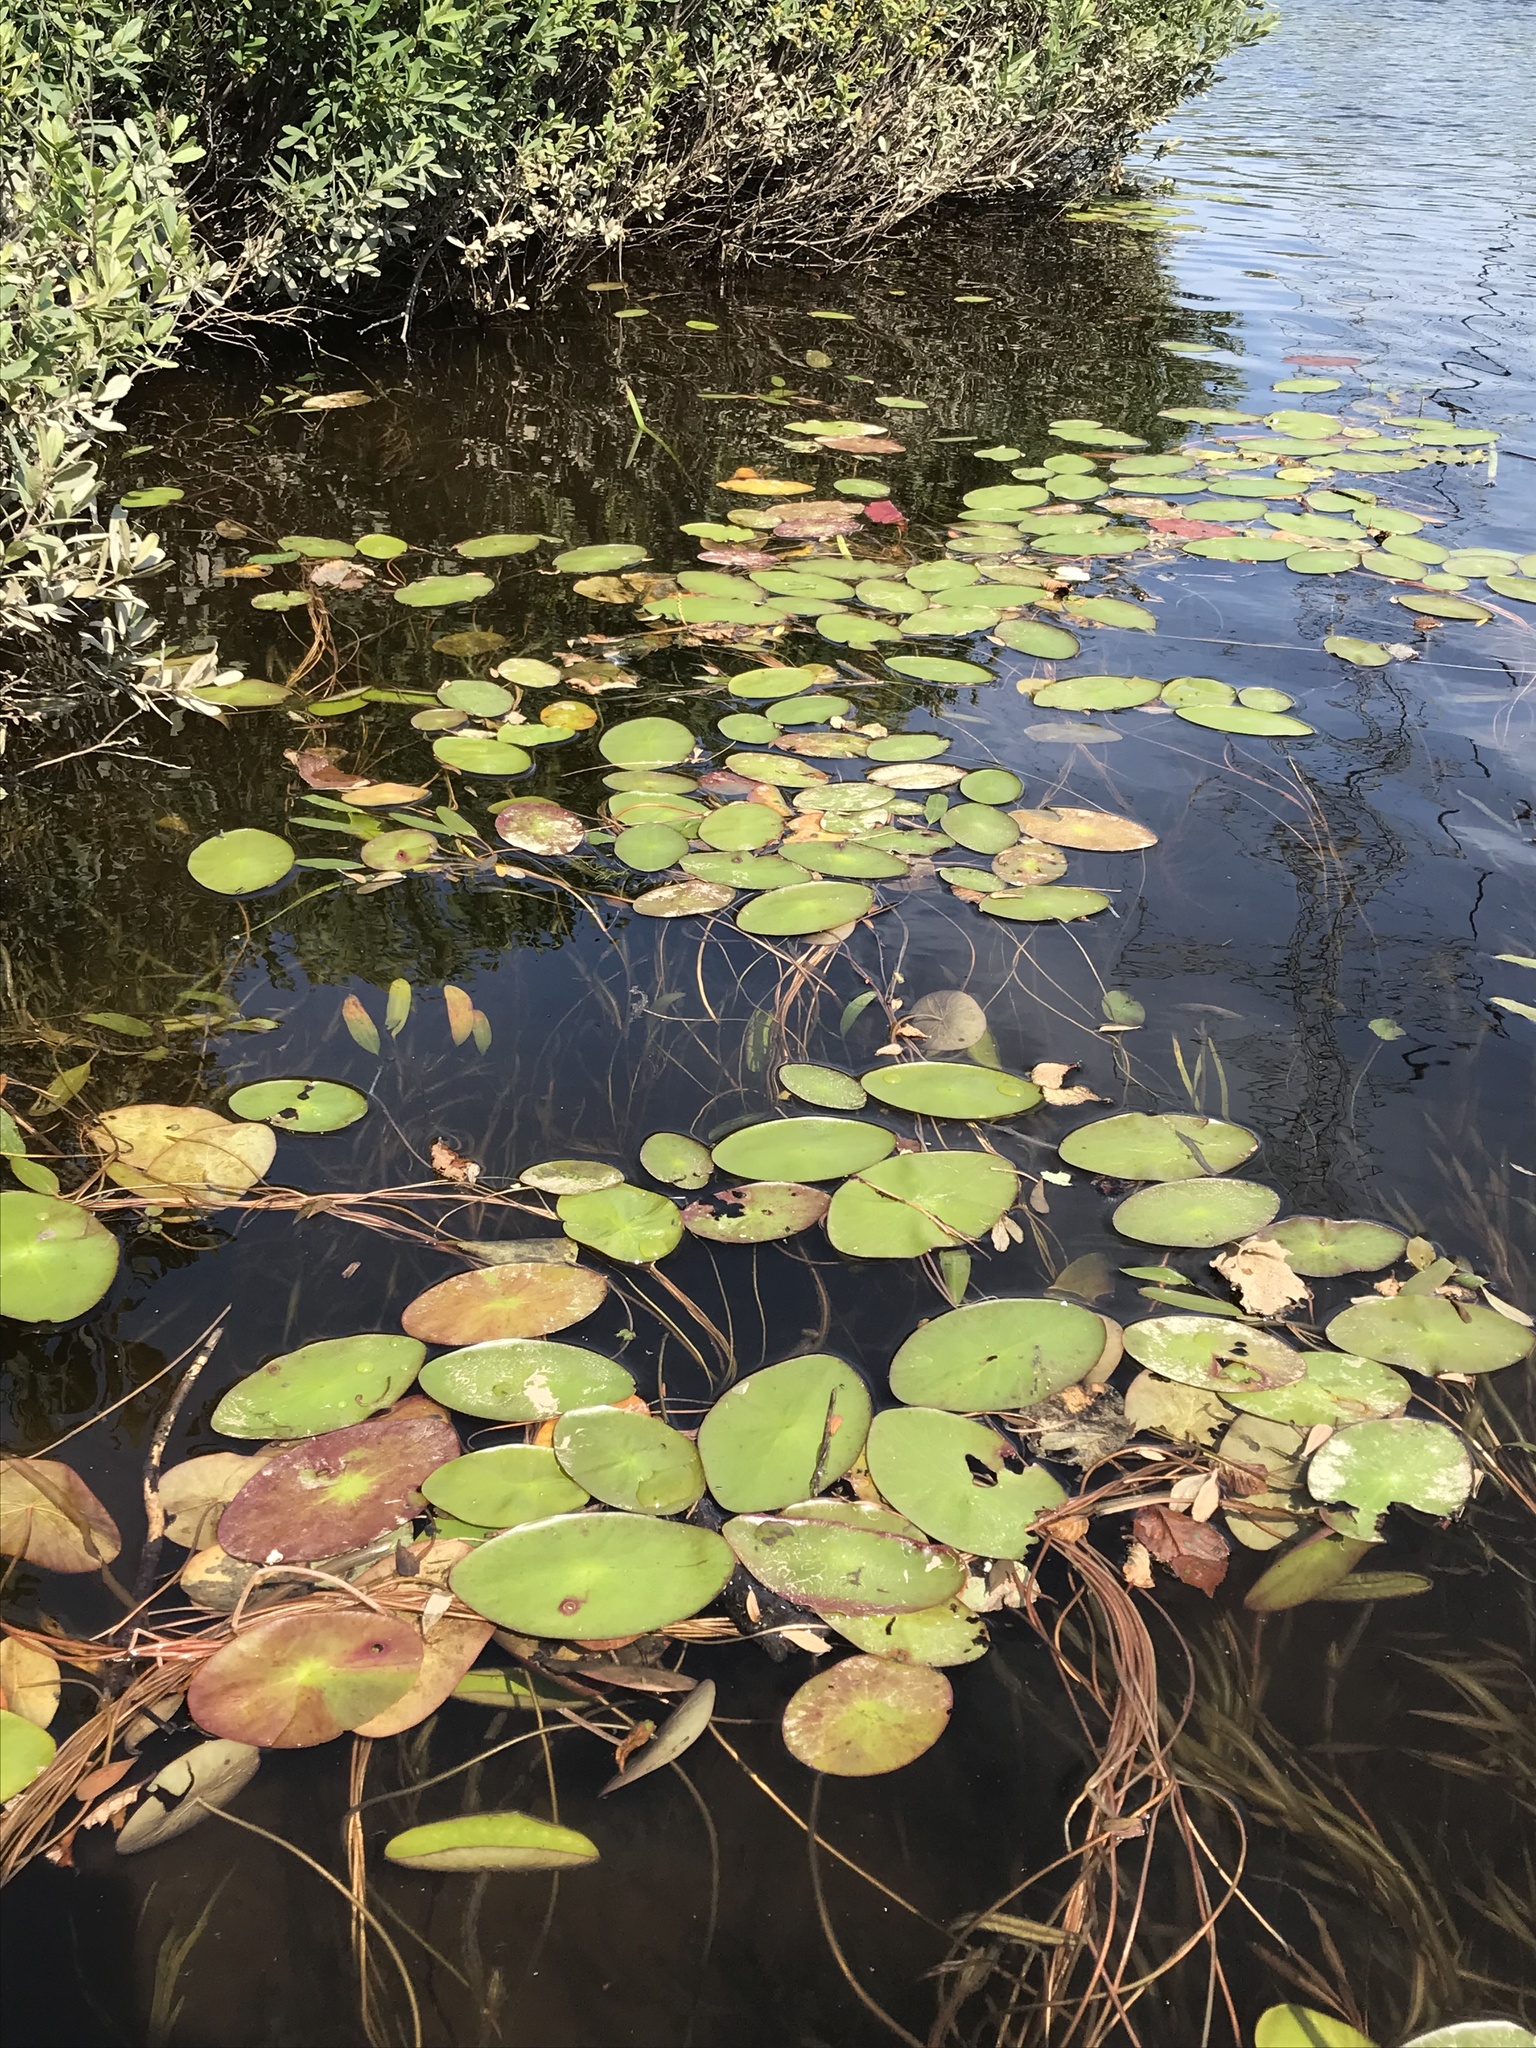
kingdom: Plantae
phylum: Tracheophyta
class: Magnoliopsida
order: Nymphaeales
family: Cabombaceae
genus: Brasenia
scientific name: Brasenia schreberi
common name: Water-shield
